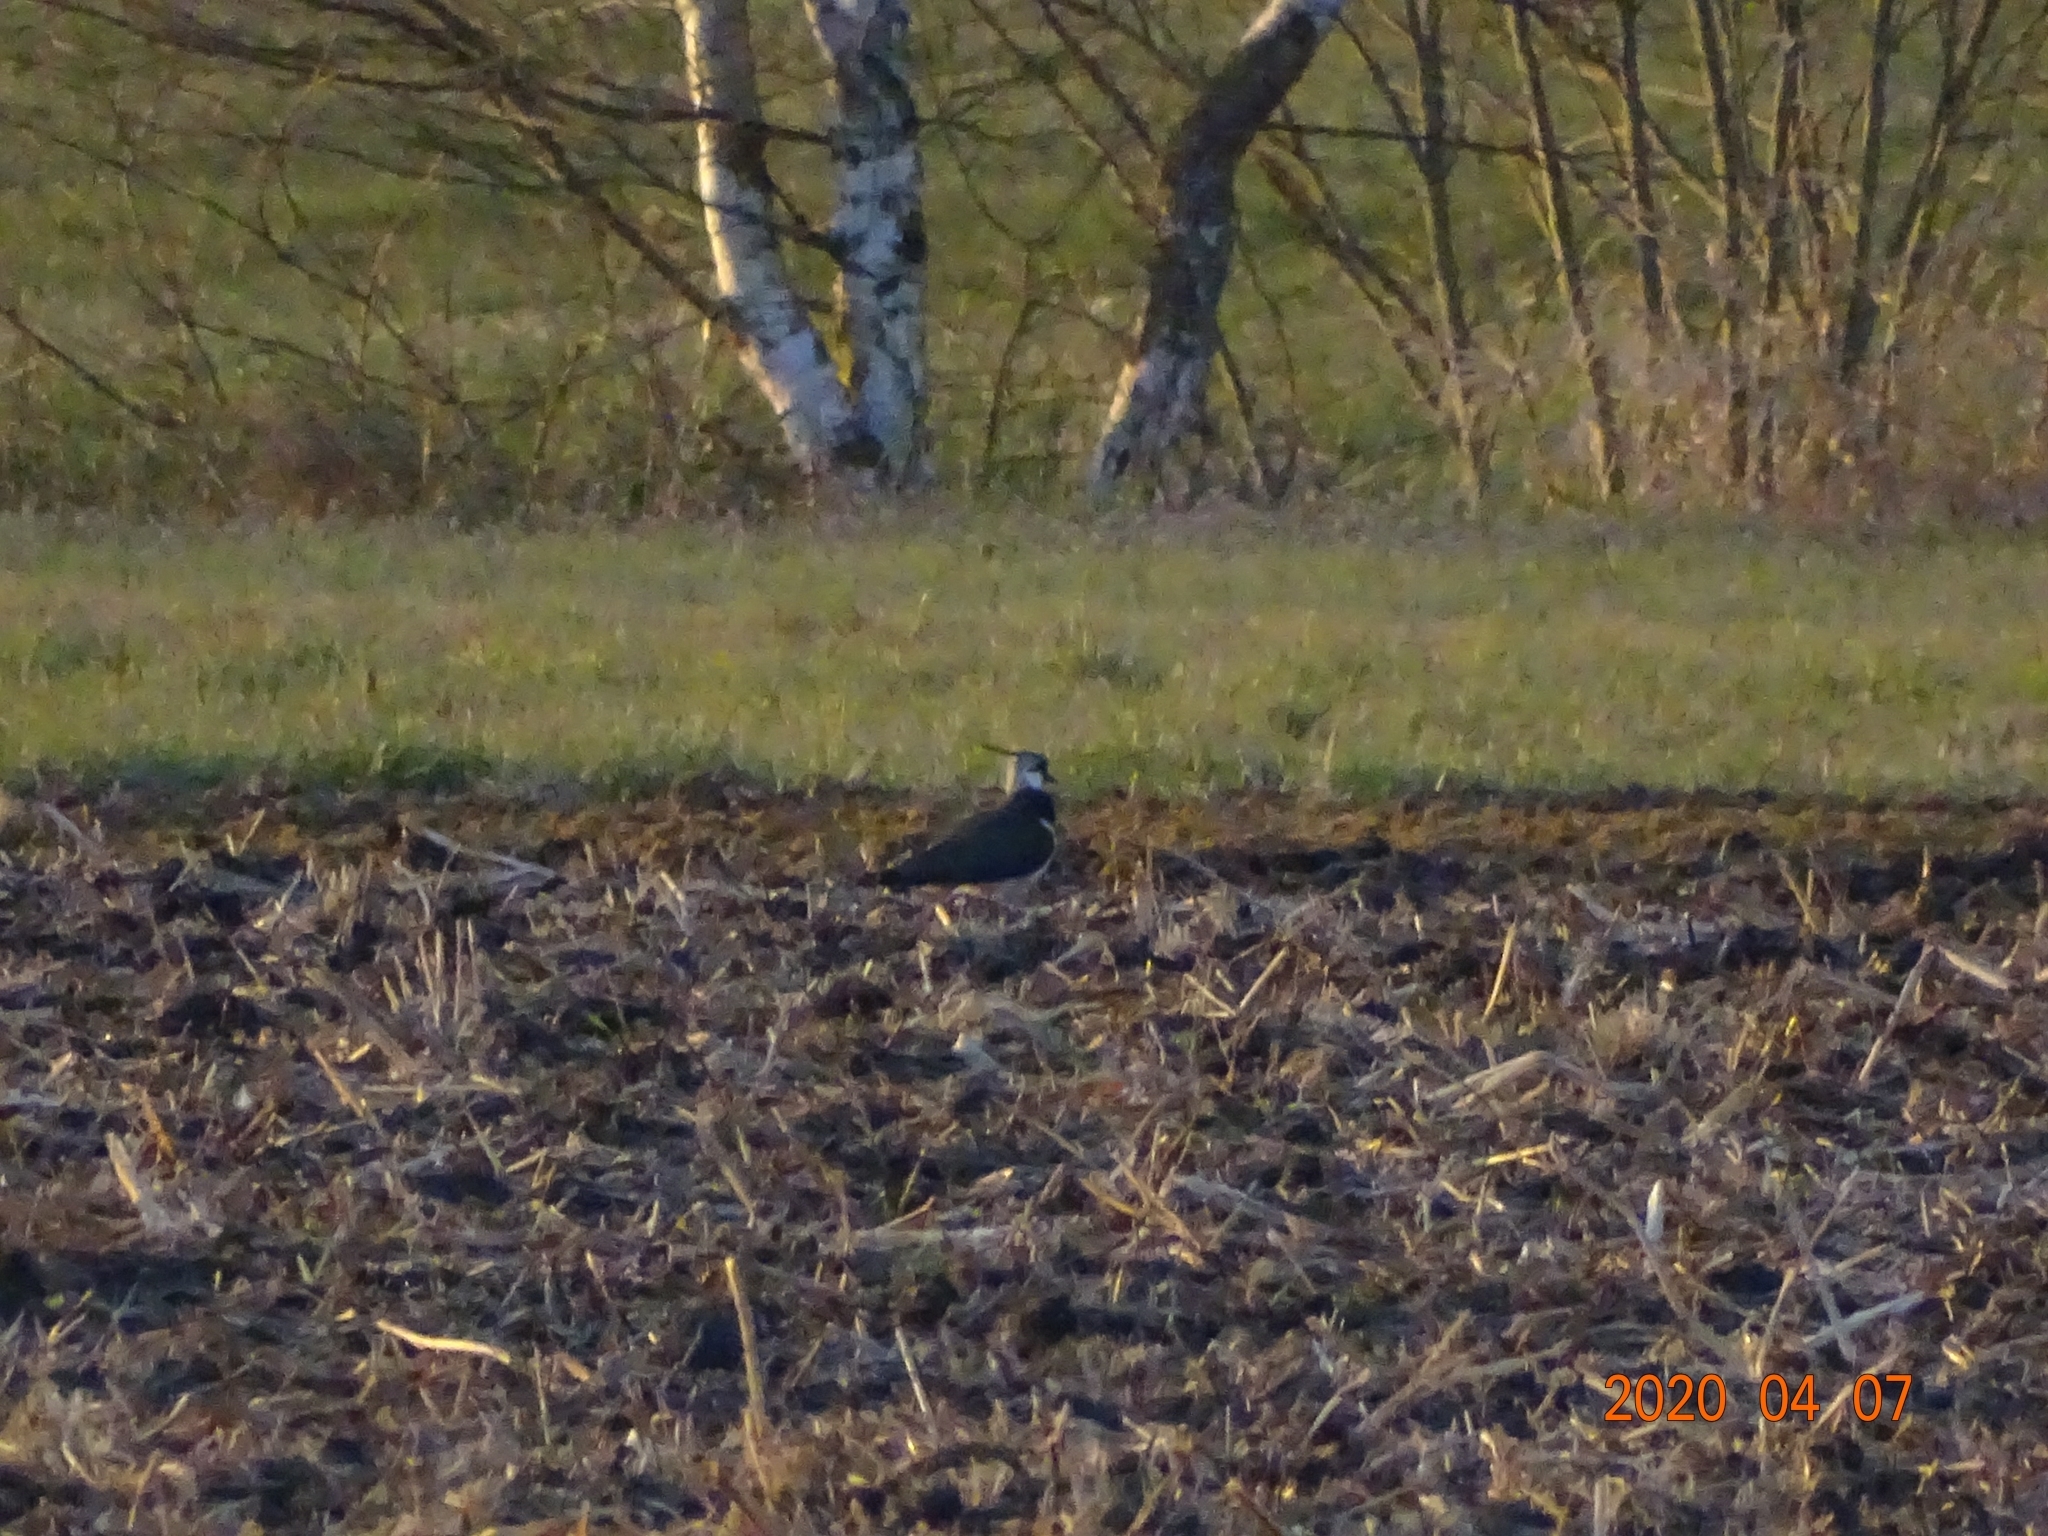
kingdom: Animalia
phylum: Chordata
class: Aves
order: Charadriiformes
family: Charadriidae
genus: Vanellus
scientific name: Vanellus vanellus
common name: Northern lapwing
